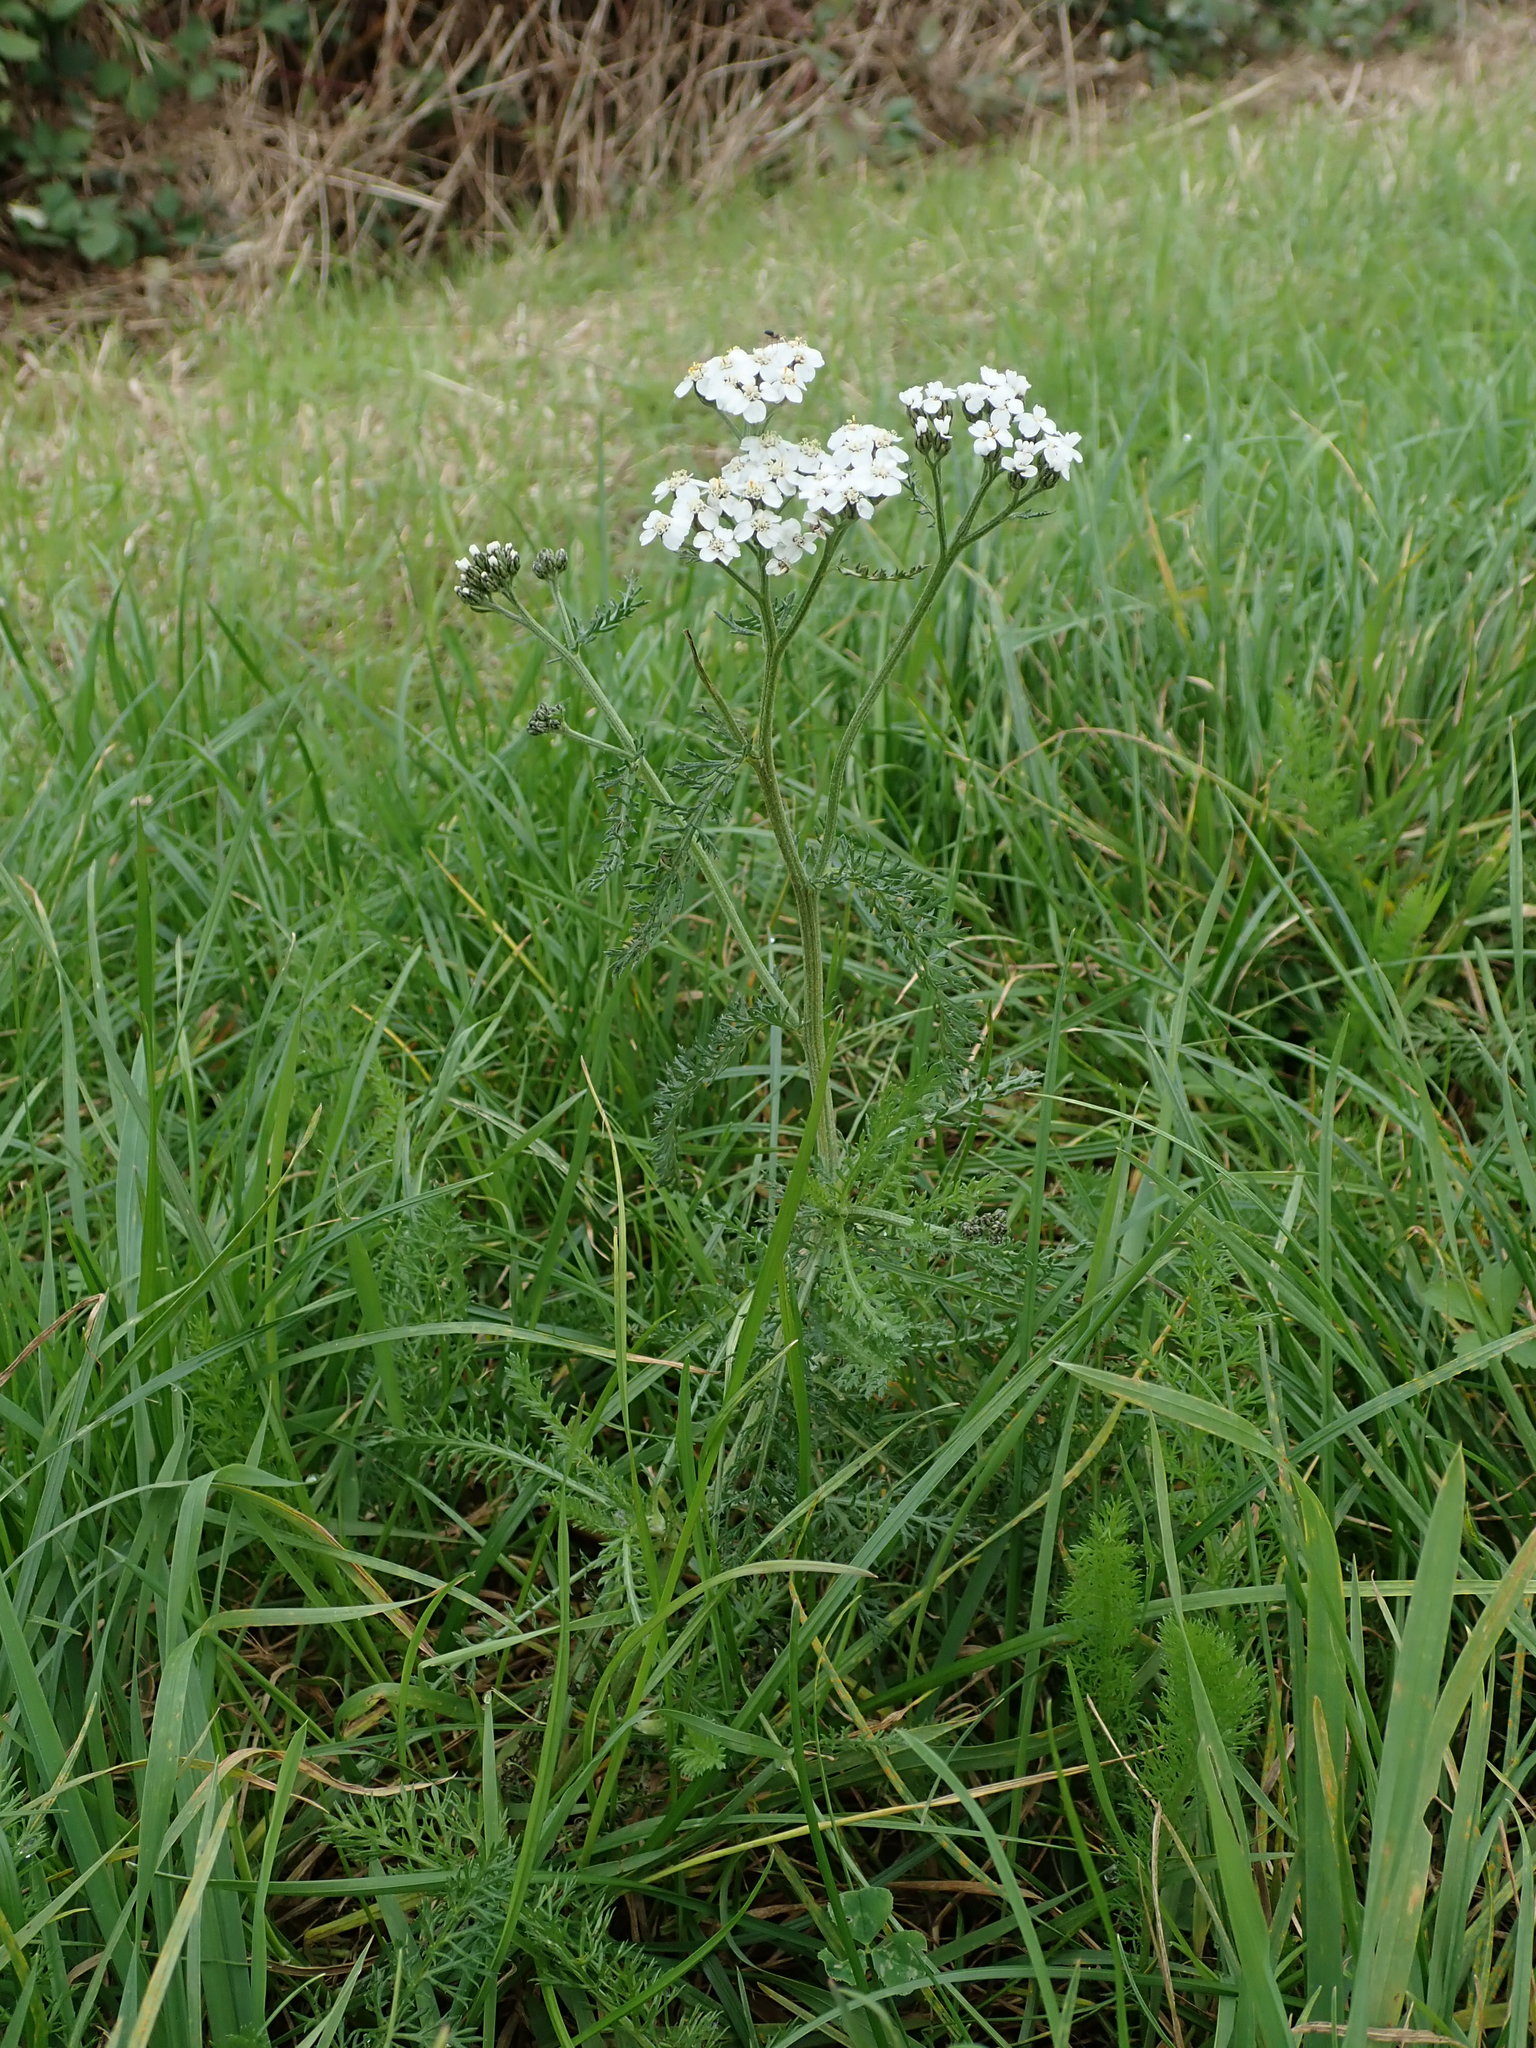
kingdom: Plantae
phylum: Tracheophyta
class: Magnoliopsida
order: Asterales
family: Asteraceae
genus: Achillea
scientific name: Achillea millefolium
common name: Yarrow
